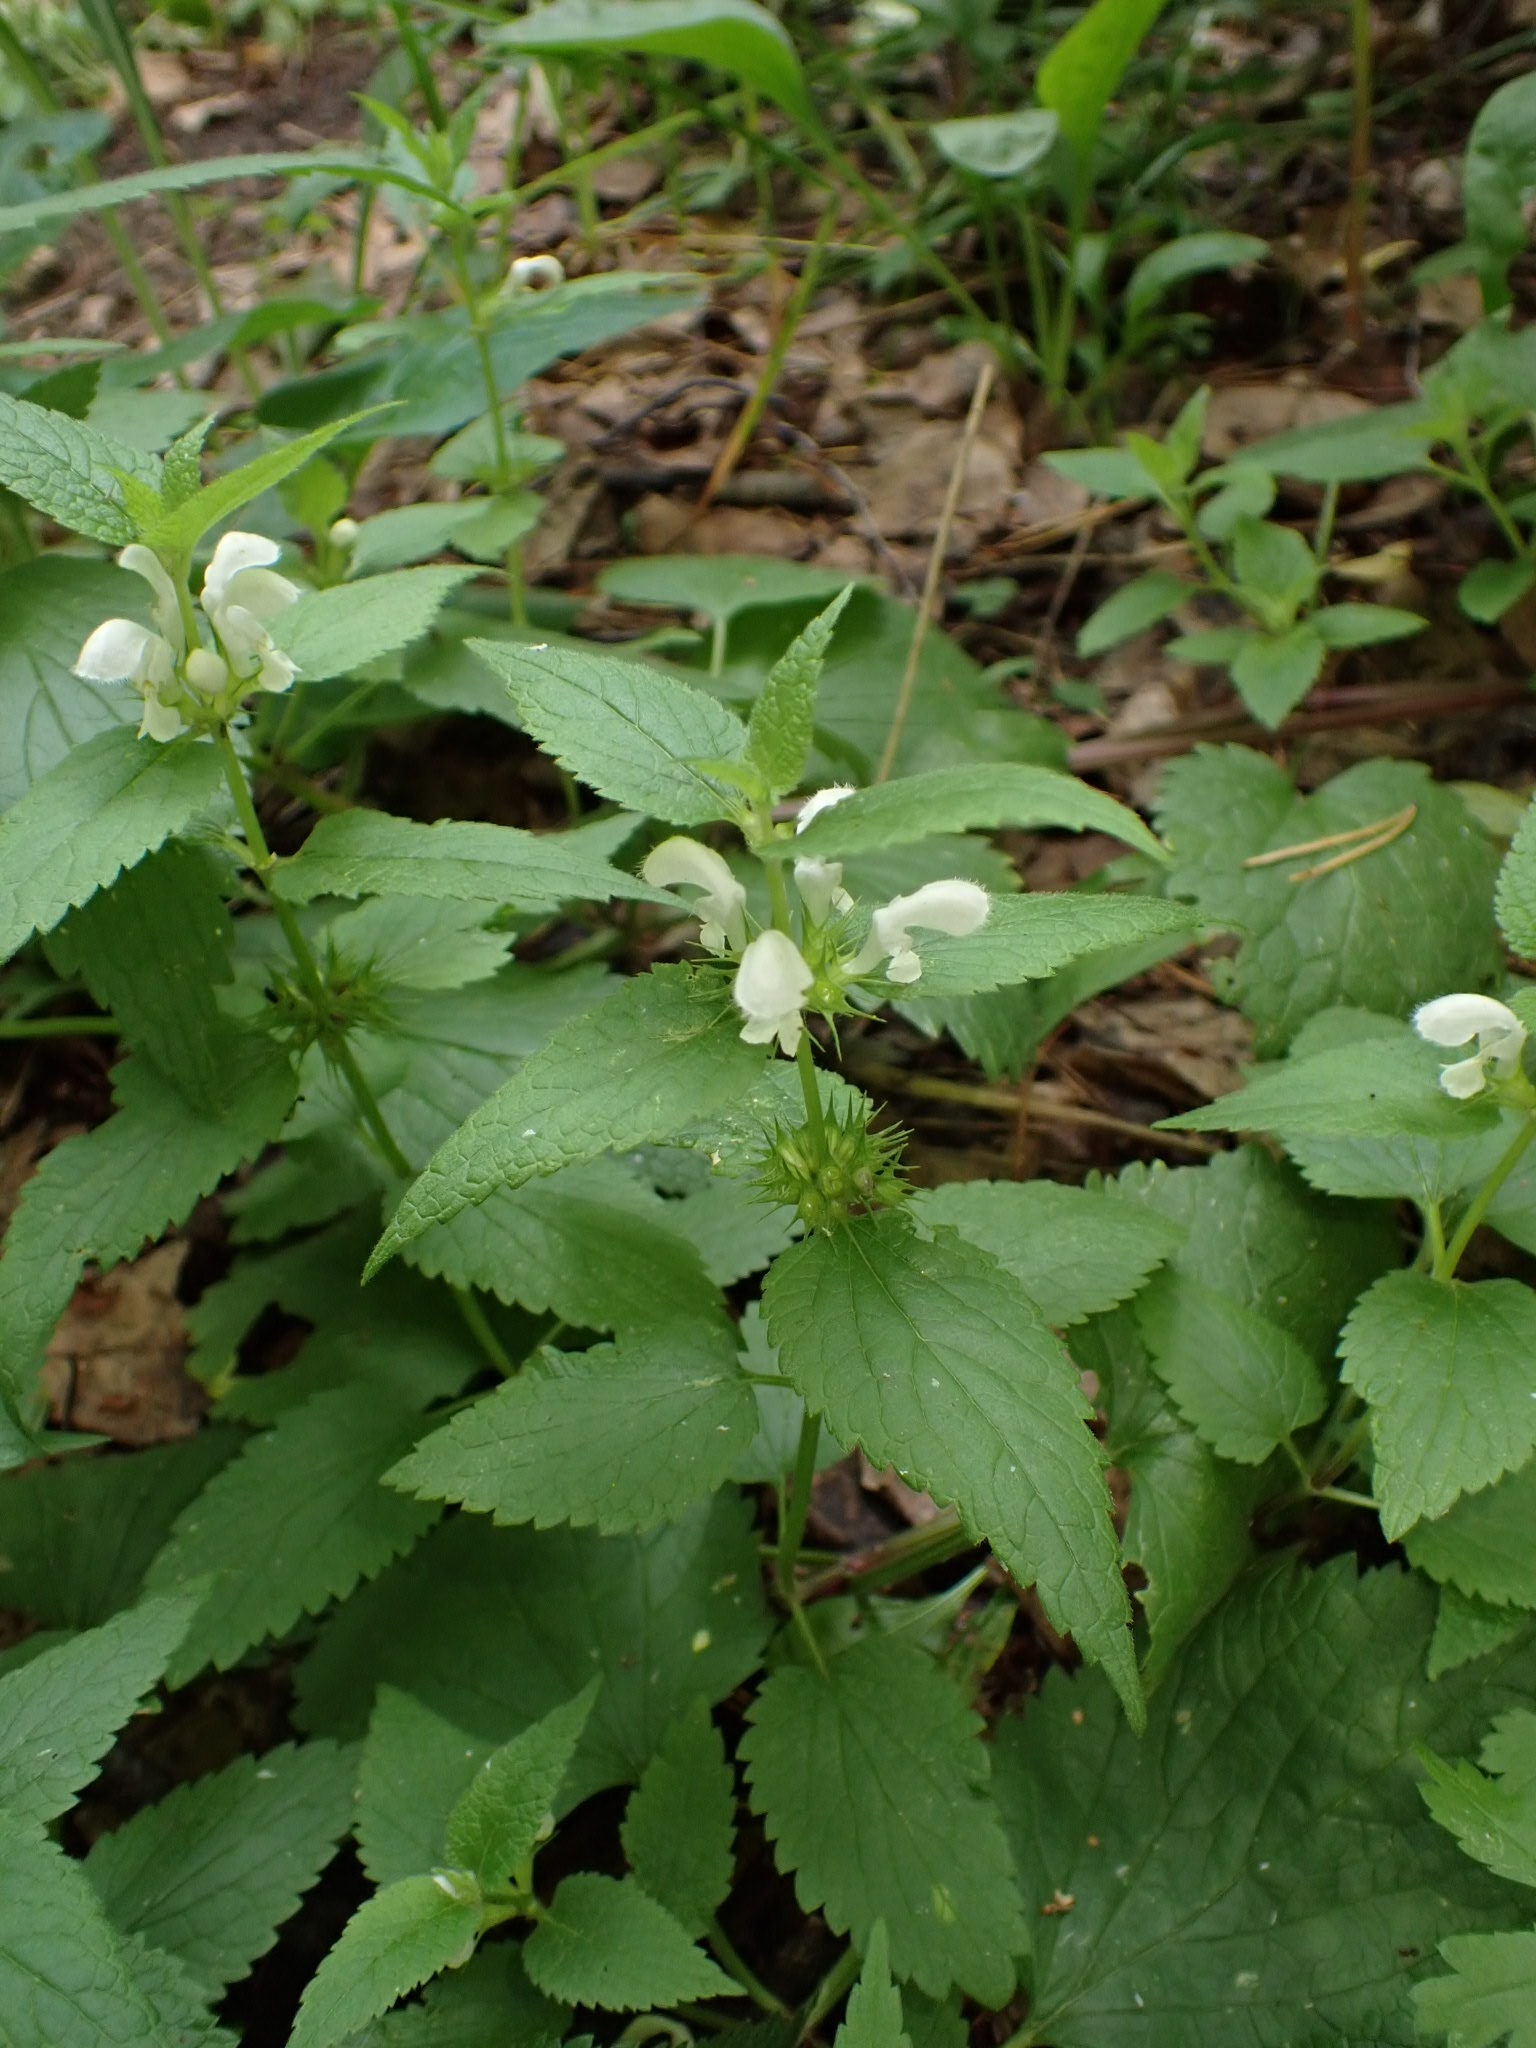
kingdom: Plantae
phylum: Tracheophyta
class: Magnoliopsida
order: Lamiales
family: Lamiaceae
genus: Lamium
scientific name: Lamium album
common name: White dead-nettle
